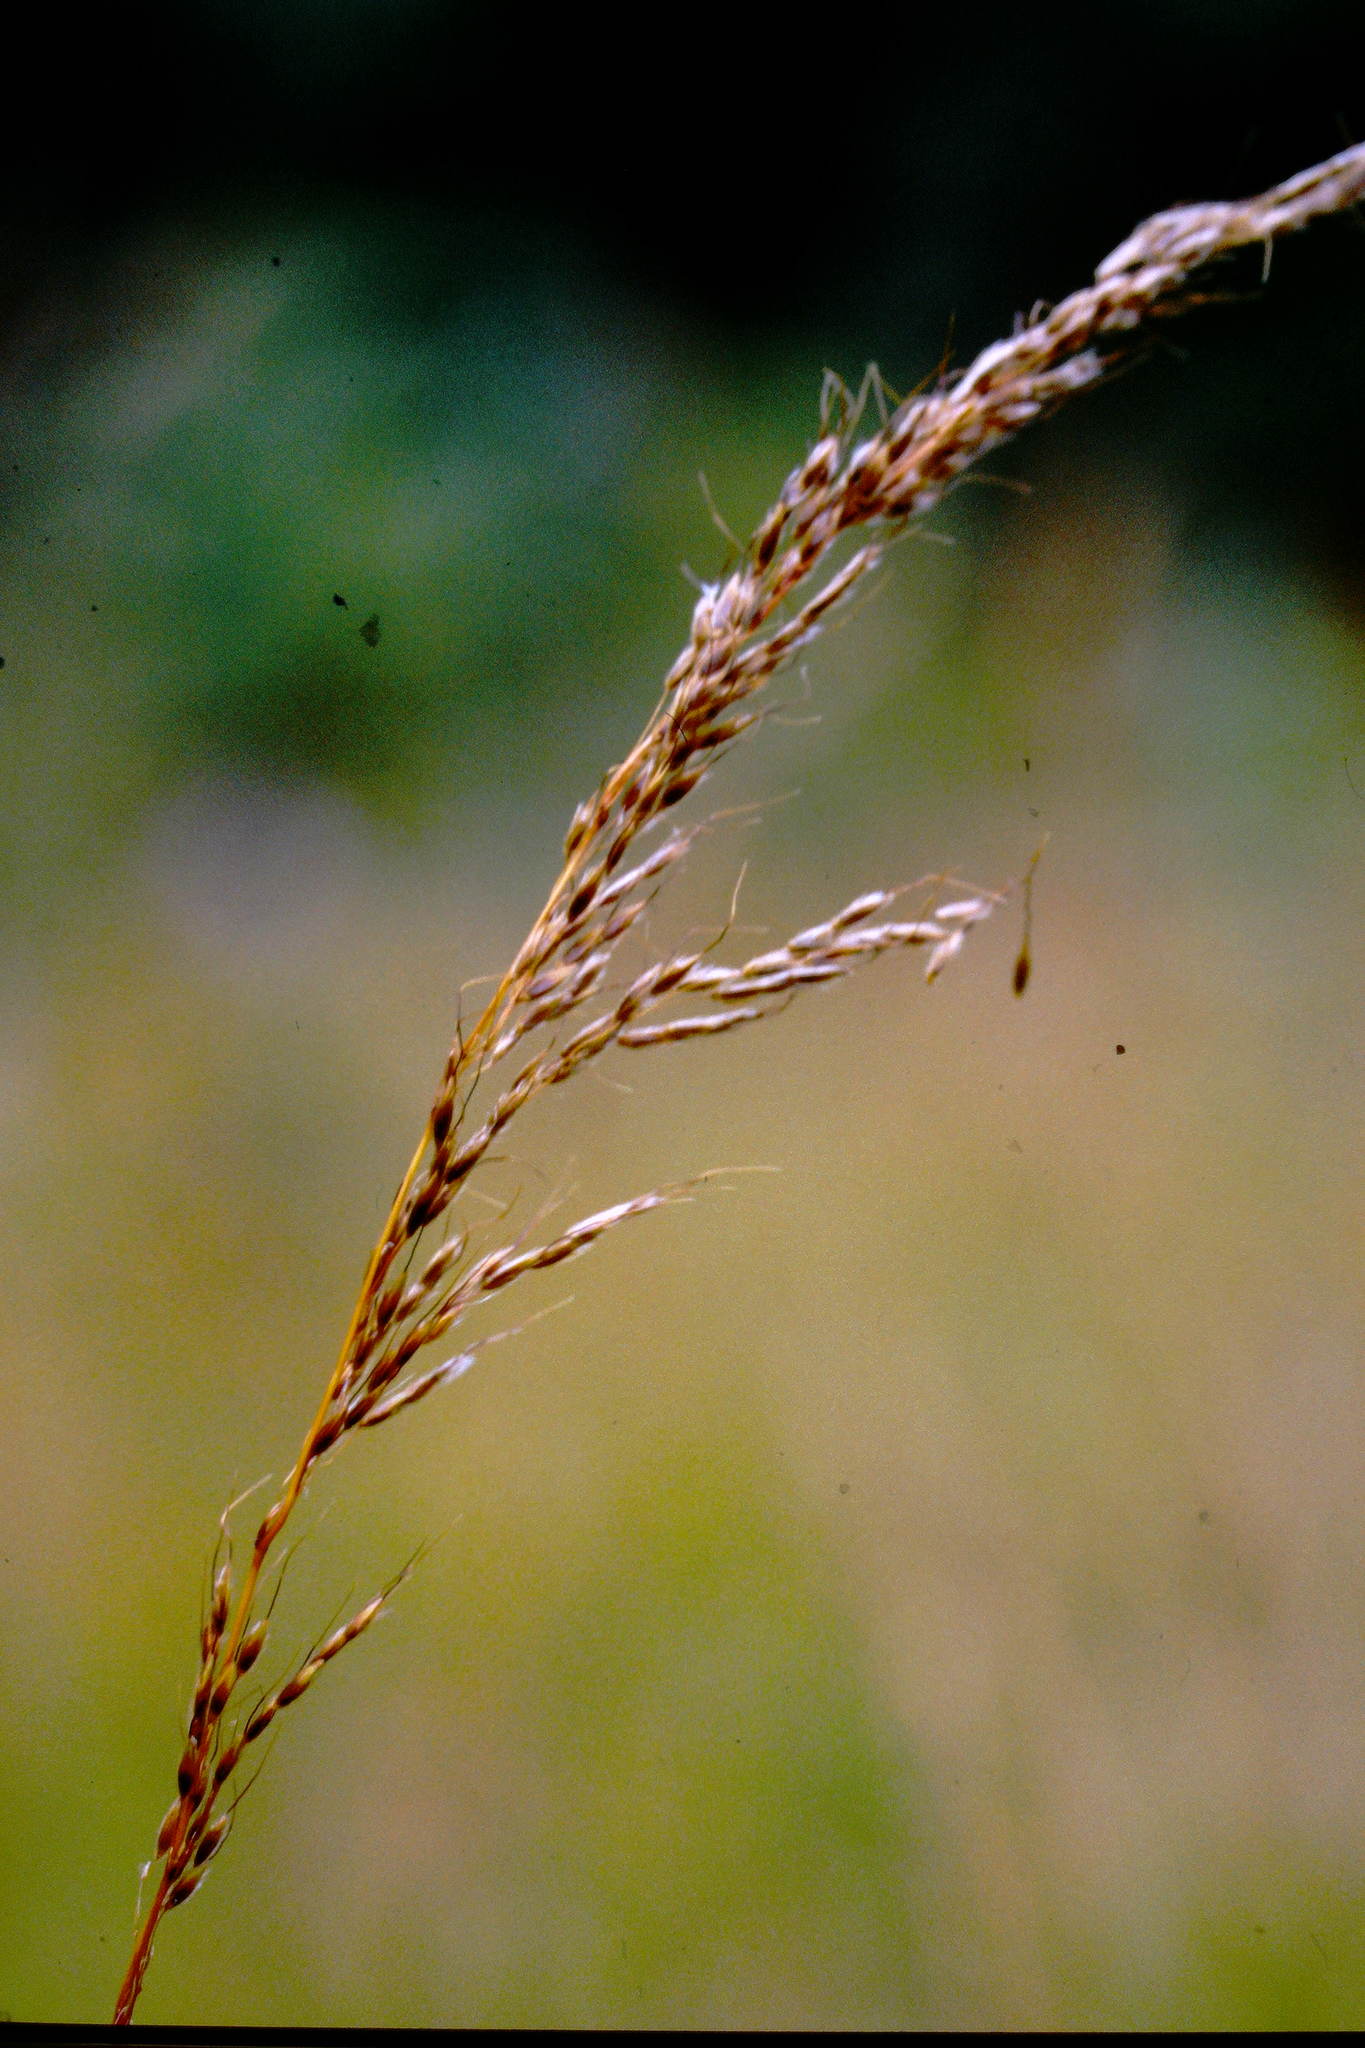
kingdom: Plantae
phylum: Tracheophyta
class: Liliopsida
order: Poales
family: Poaceae
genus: Sorghastrum
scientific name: Sorghastrum nutans
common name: Indian grass
